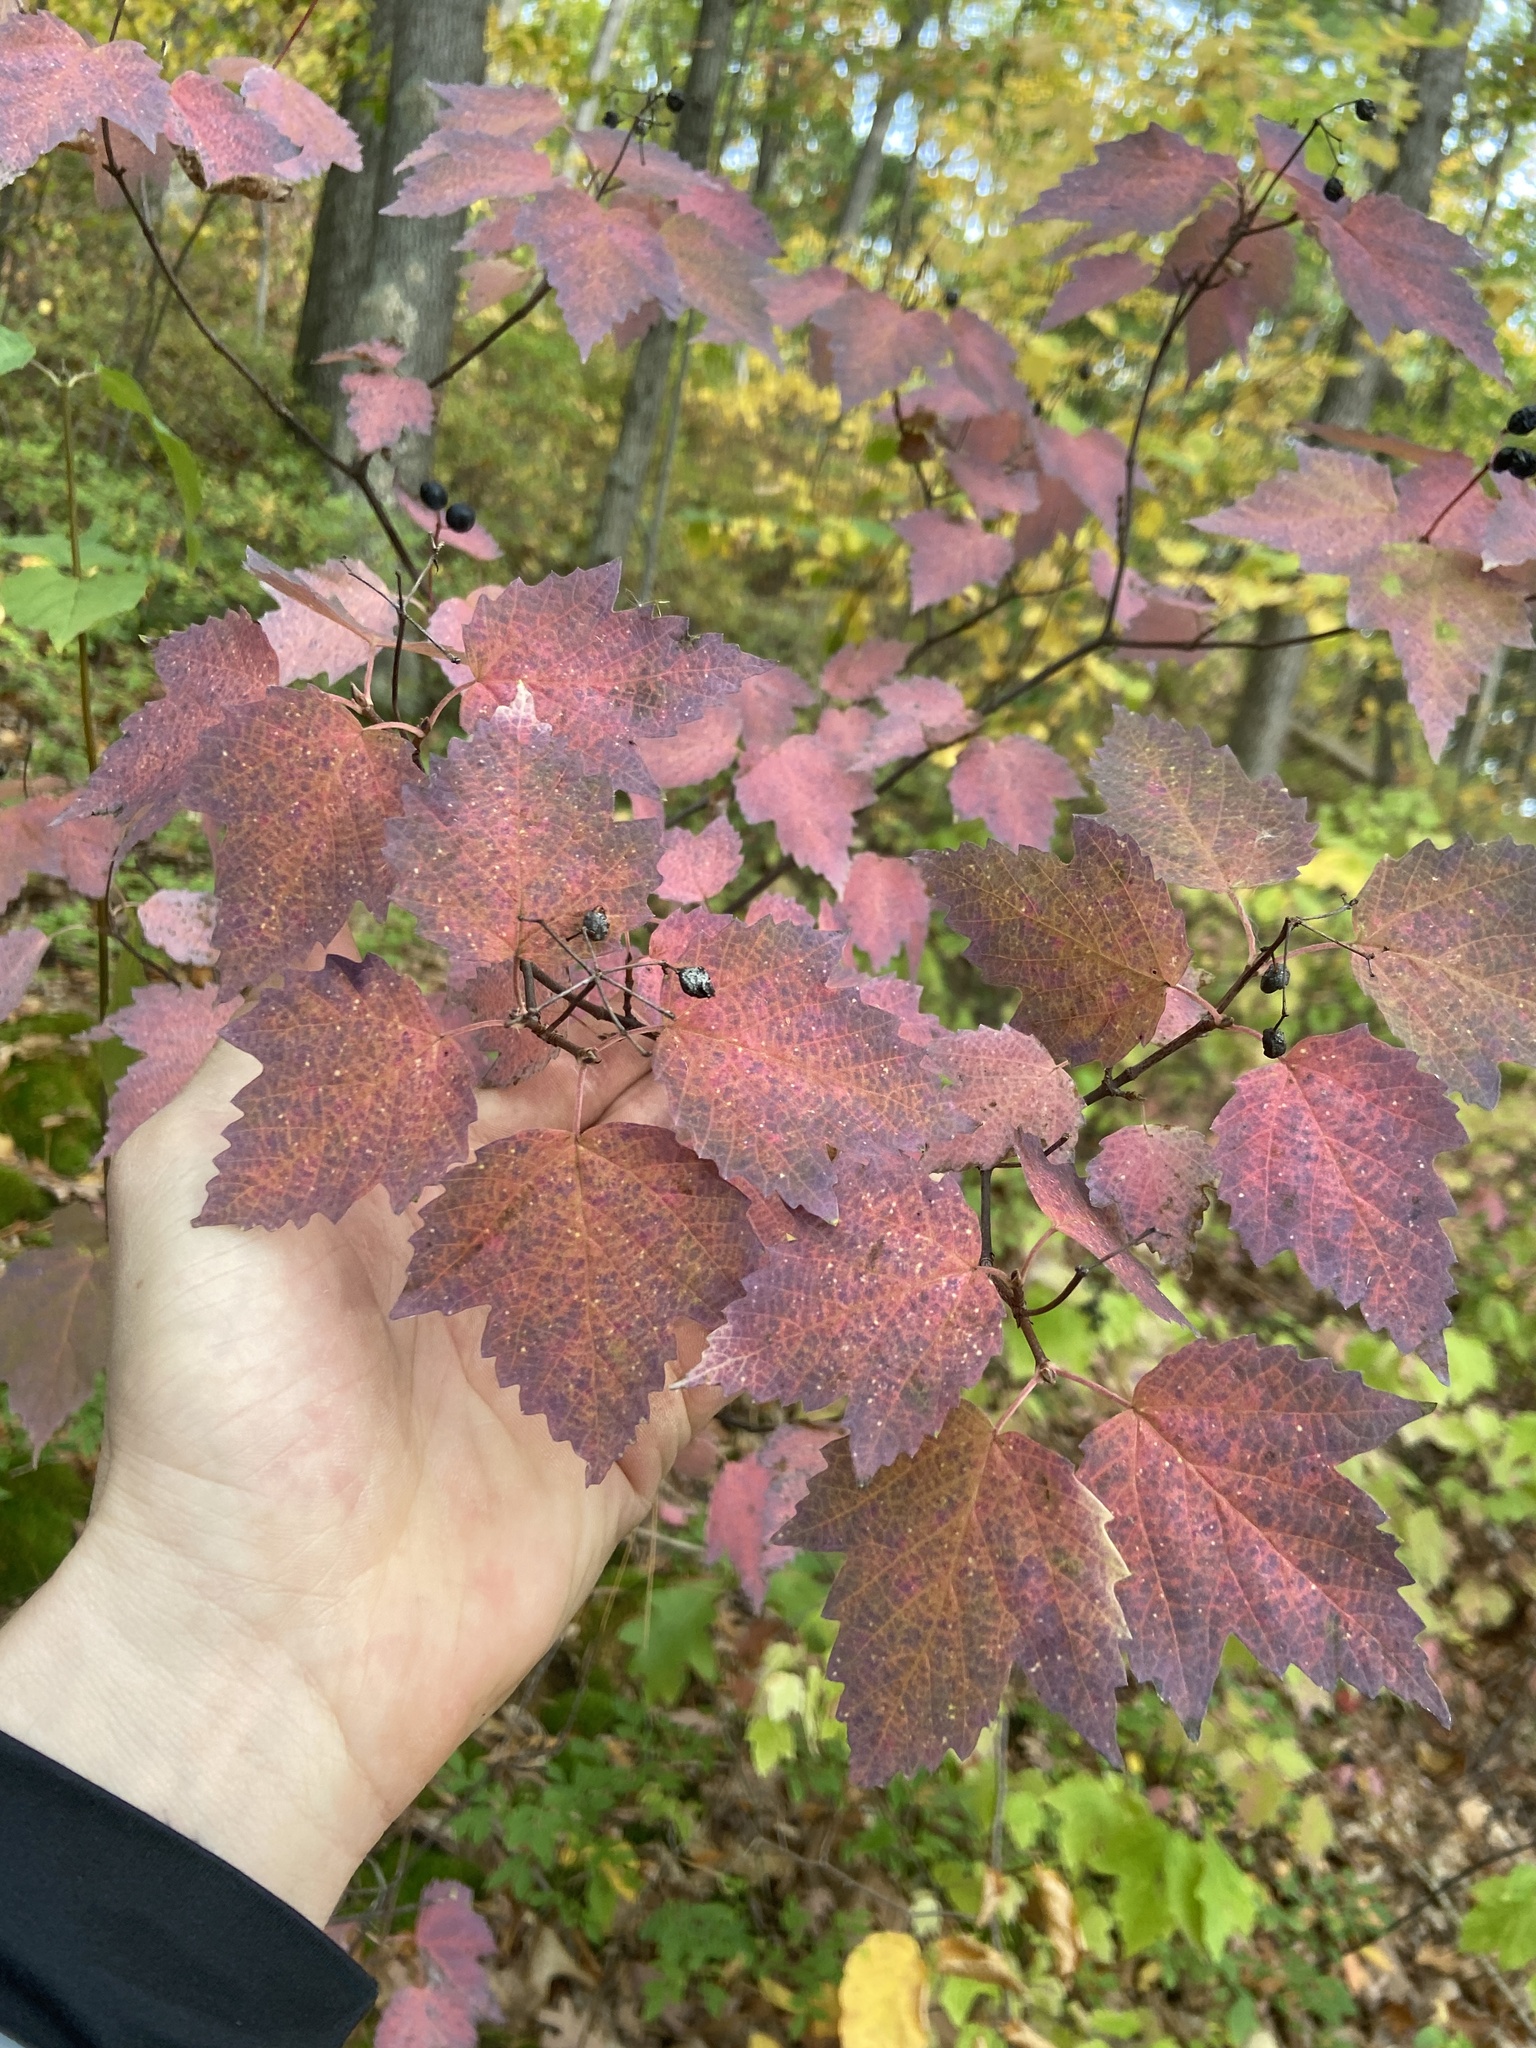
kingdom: Plantae
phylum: Tracheophyta
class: Magnoliopsida
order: Dipsacales
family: Viburnaceae
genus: Viburnum
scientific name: Viburnum acerifolium
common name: Dockmackie
